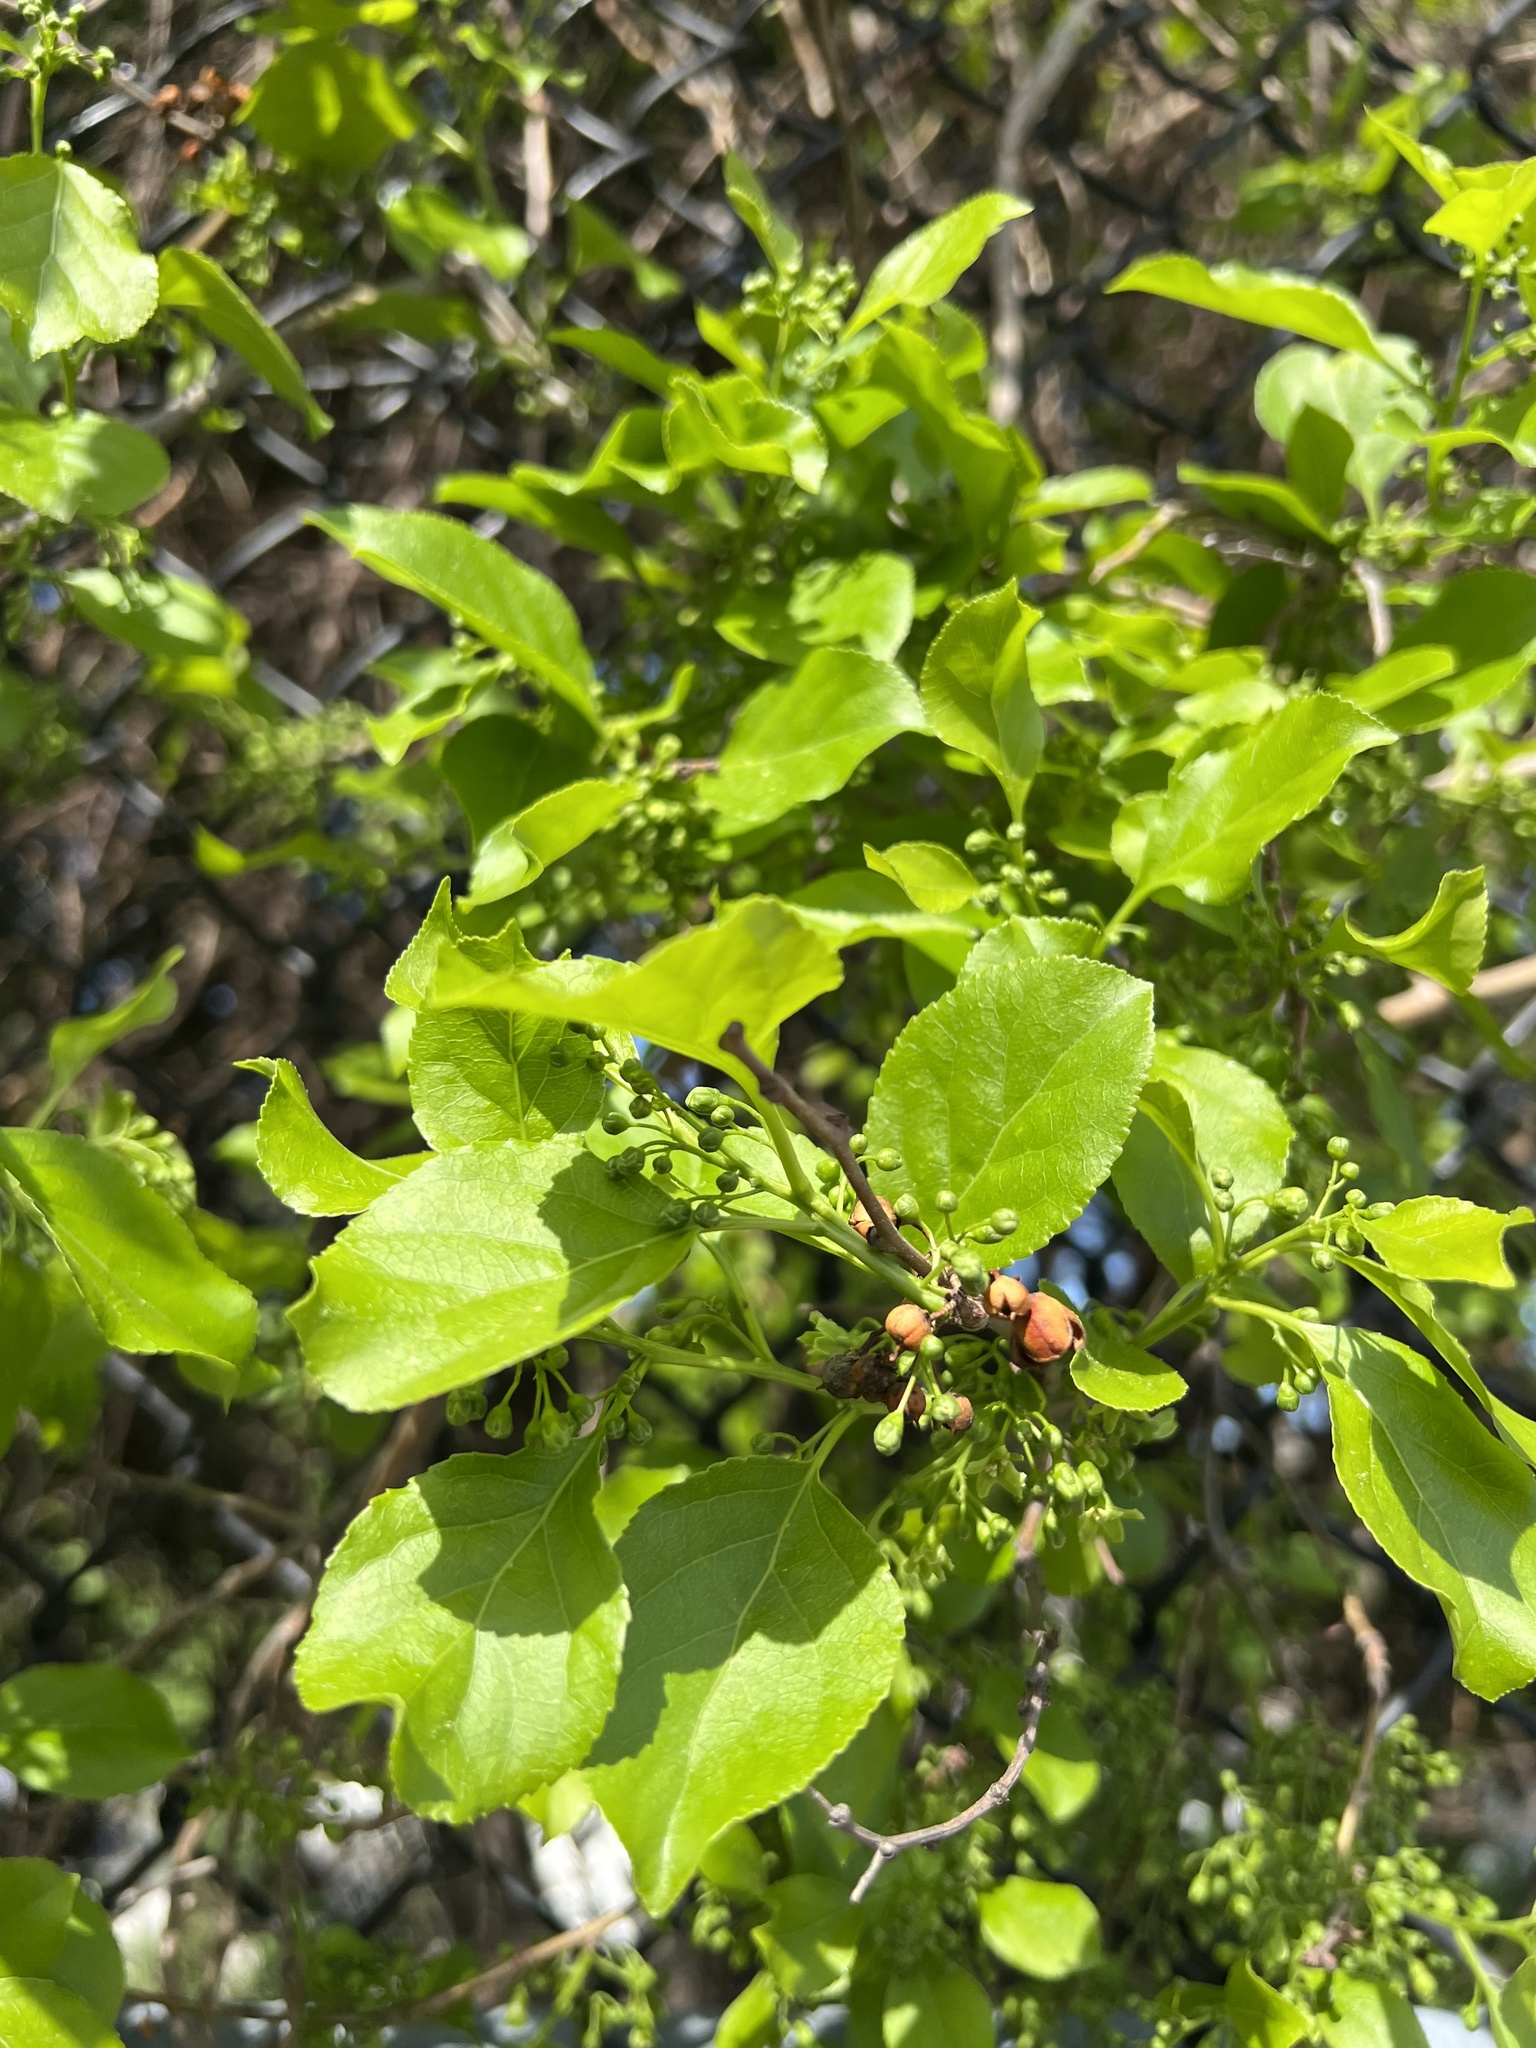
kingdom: Plantae
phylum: Tracheophyta
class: Magnoliopsida
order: Celastrales
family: Celastraceae
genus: Celastrus
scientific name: Celastrus orbiculatus
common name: Oriental bittersweet
